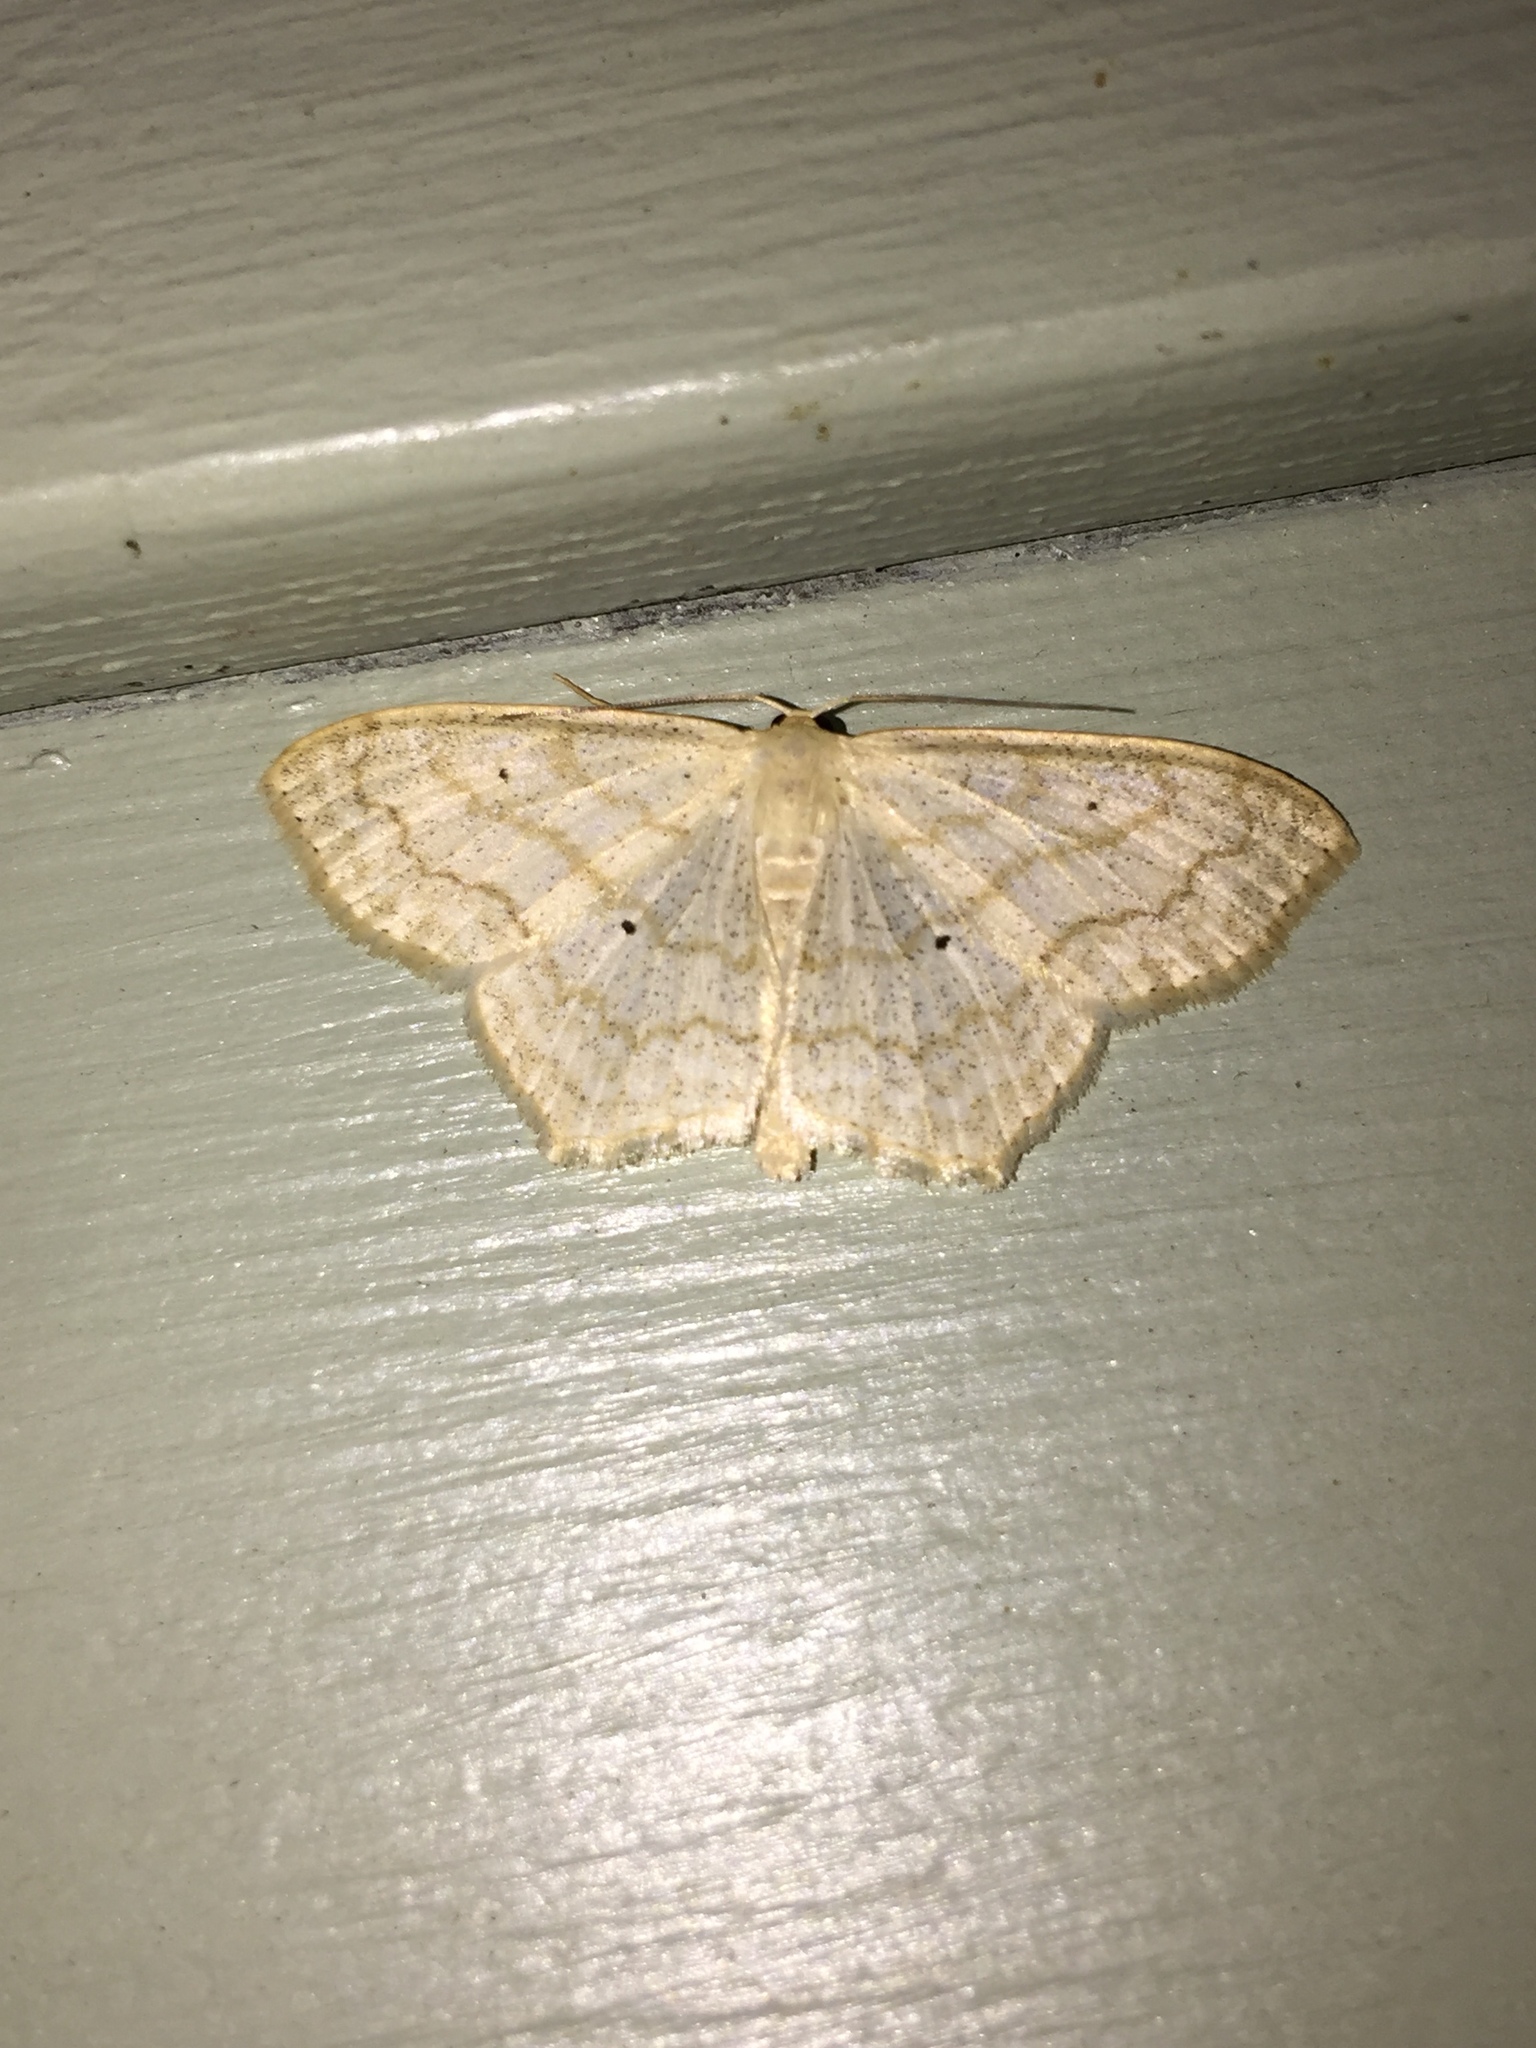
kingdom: Animalia
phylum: Arthropoda
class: Insecta
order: Lepidoptera
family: Geometridae
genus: Scopula
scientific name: Scopula limboundata
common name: Large lace border
